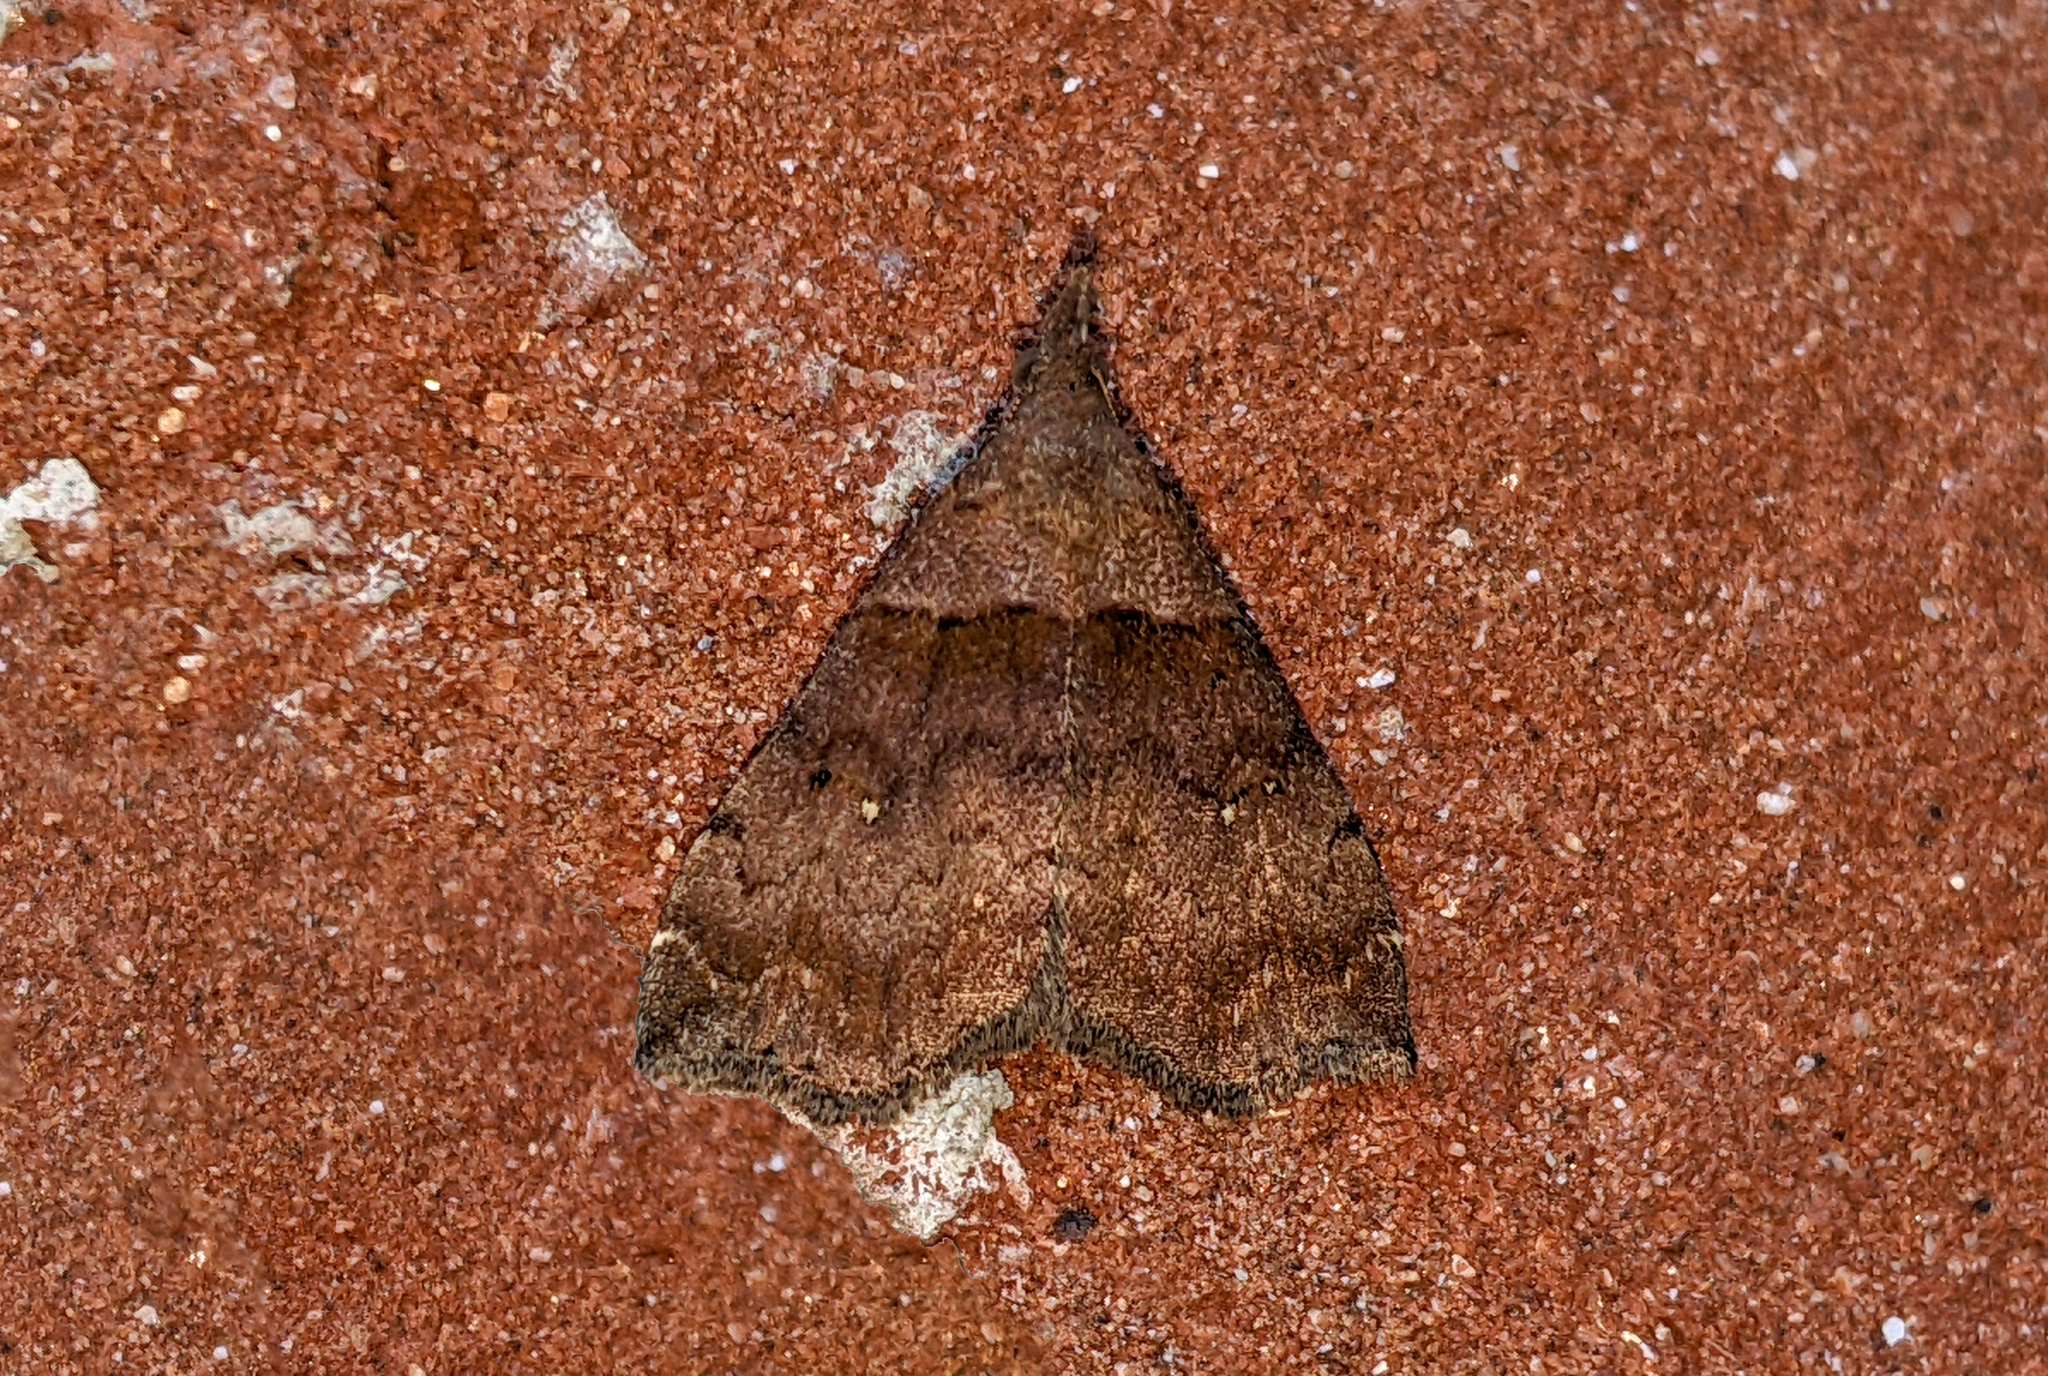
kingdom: Animalia
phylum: Arthropoda
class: Insecta
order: Lepidoptera
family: Erebidae
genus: Lascoria
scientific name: Lascoria ambigualis
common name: Ambiguous moth
